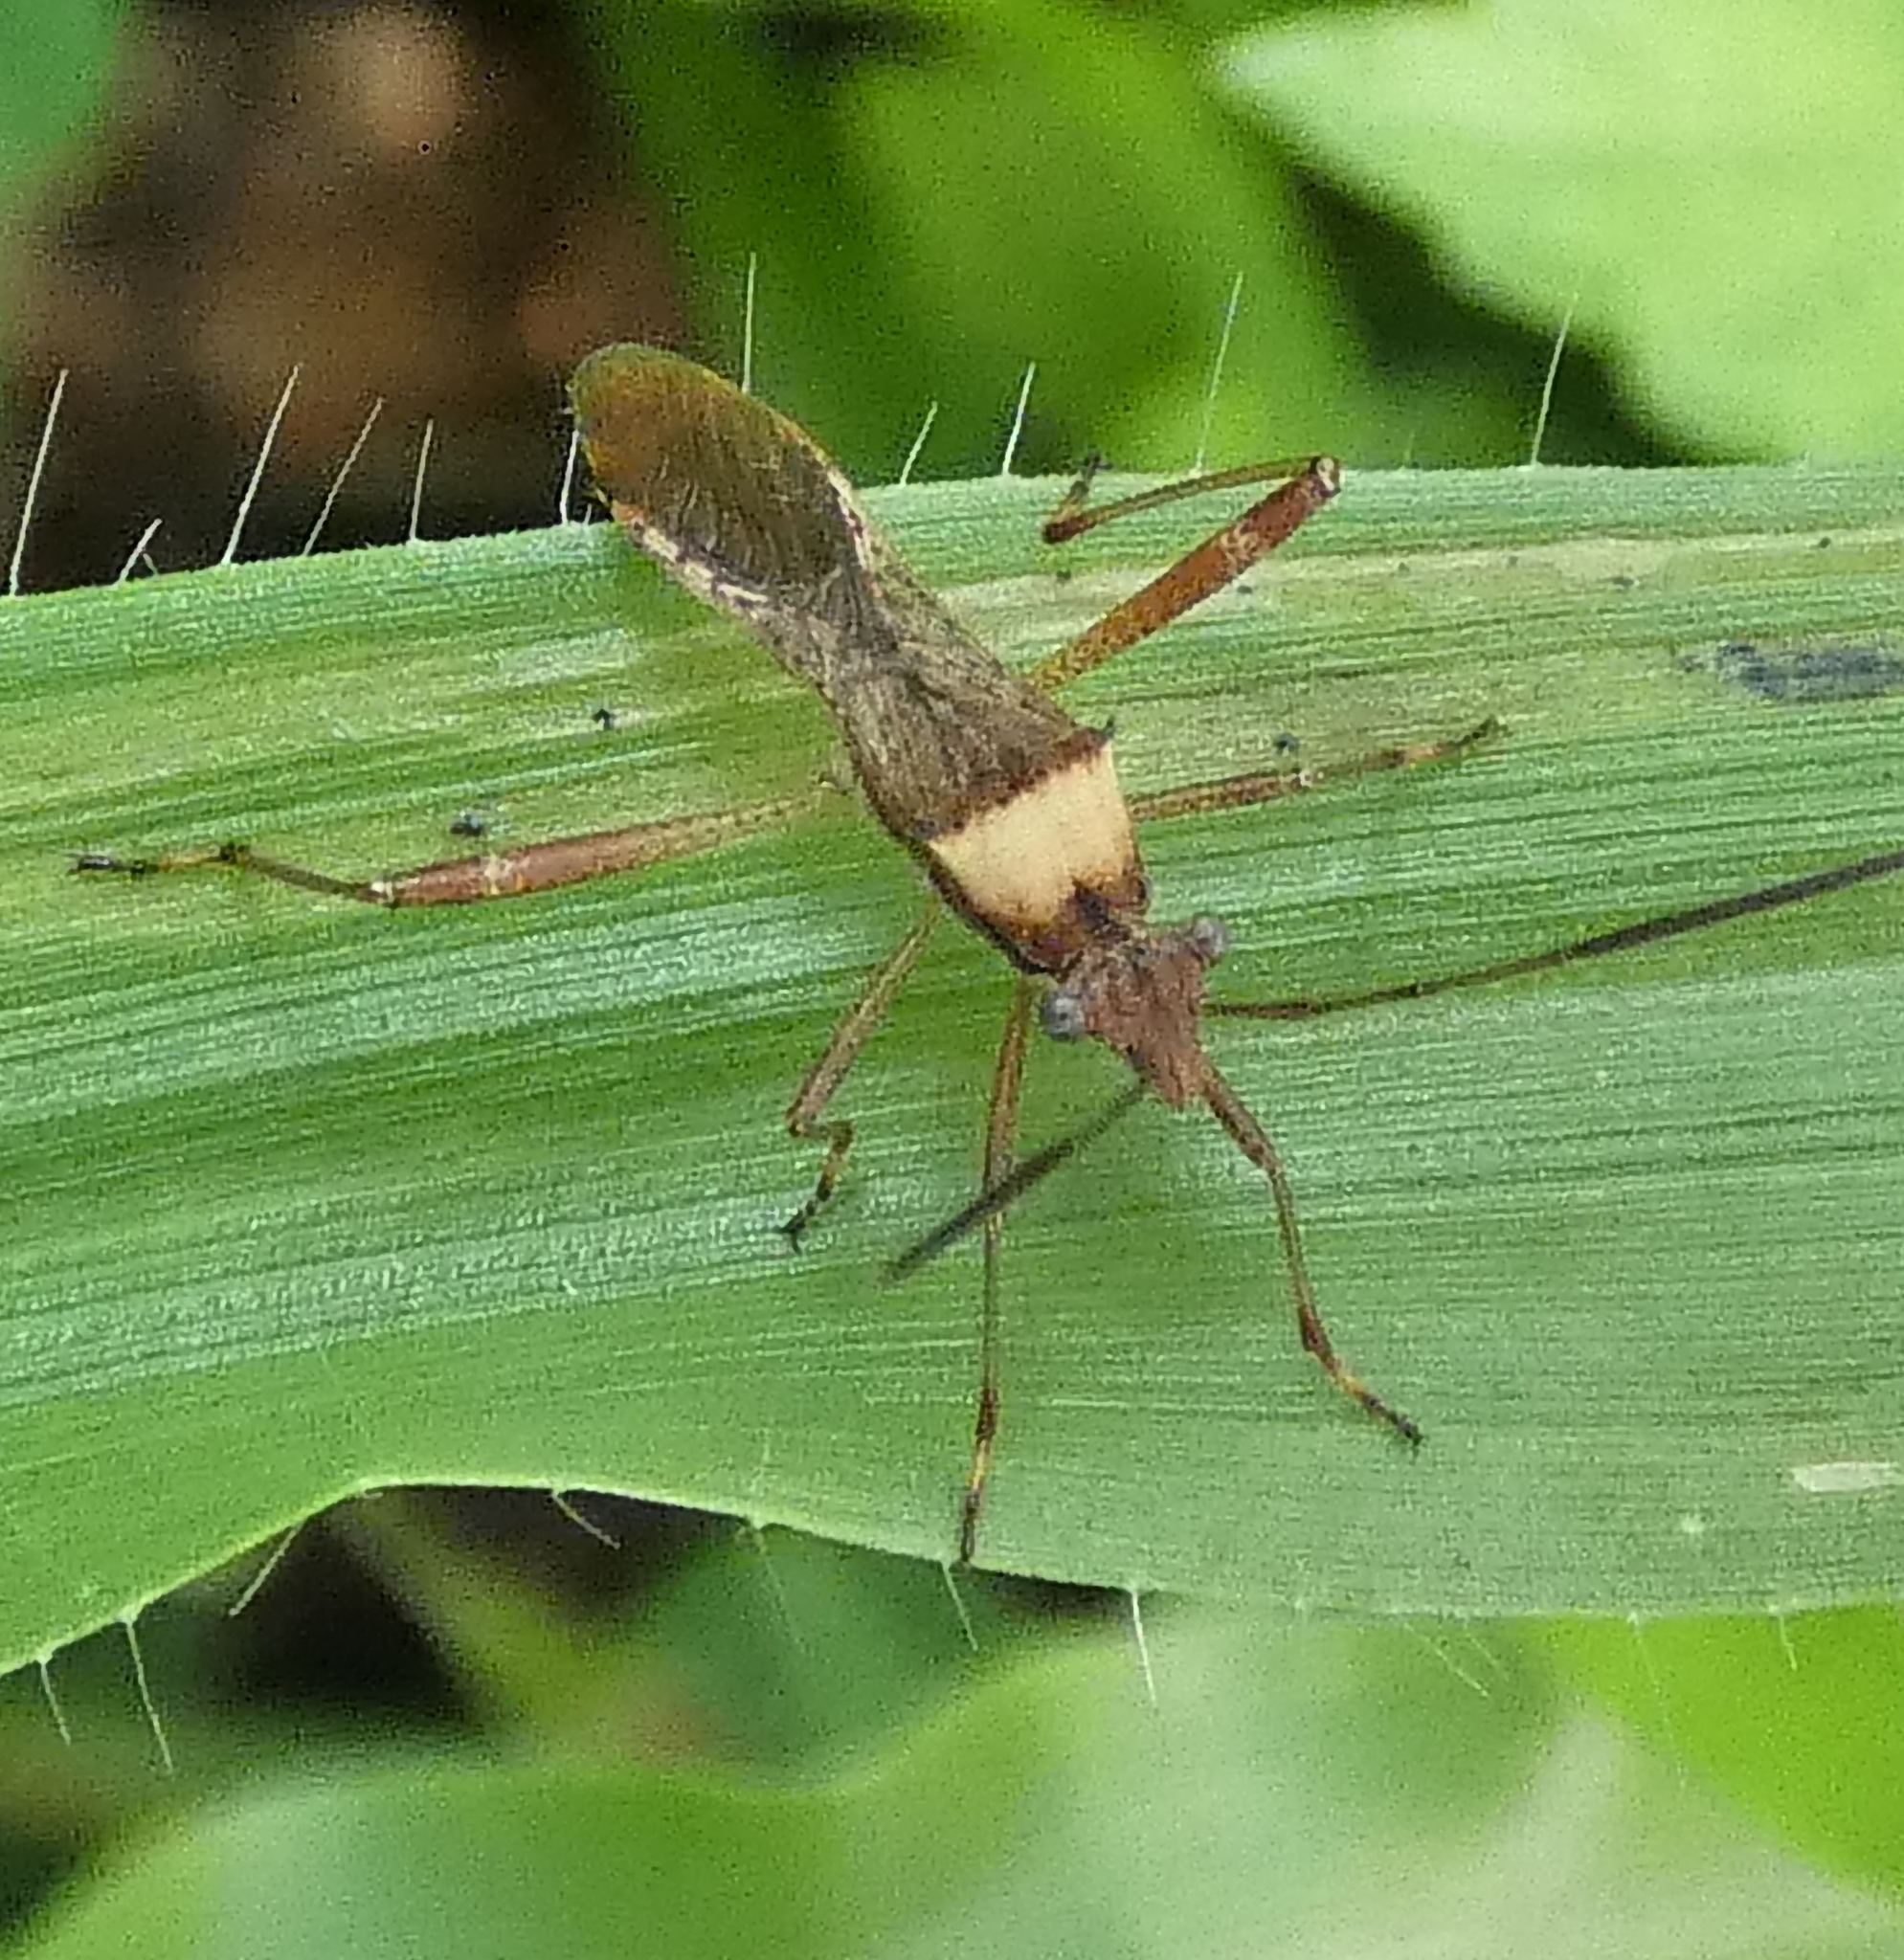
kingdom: Animalia
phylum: Arthropoda
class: Insecta
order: Hemiptera
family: Alydidae
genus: Neomegalotomus
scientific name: Neomegalotomus parvus
